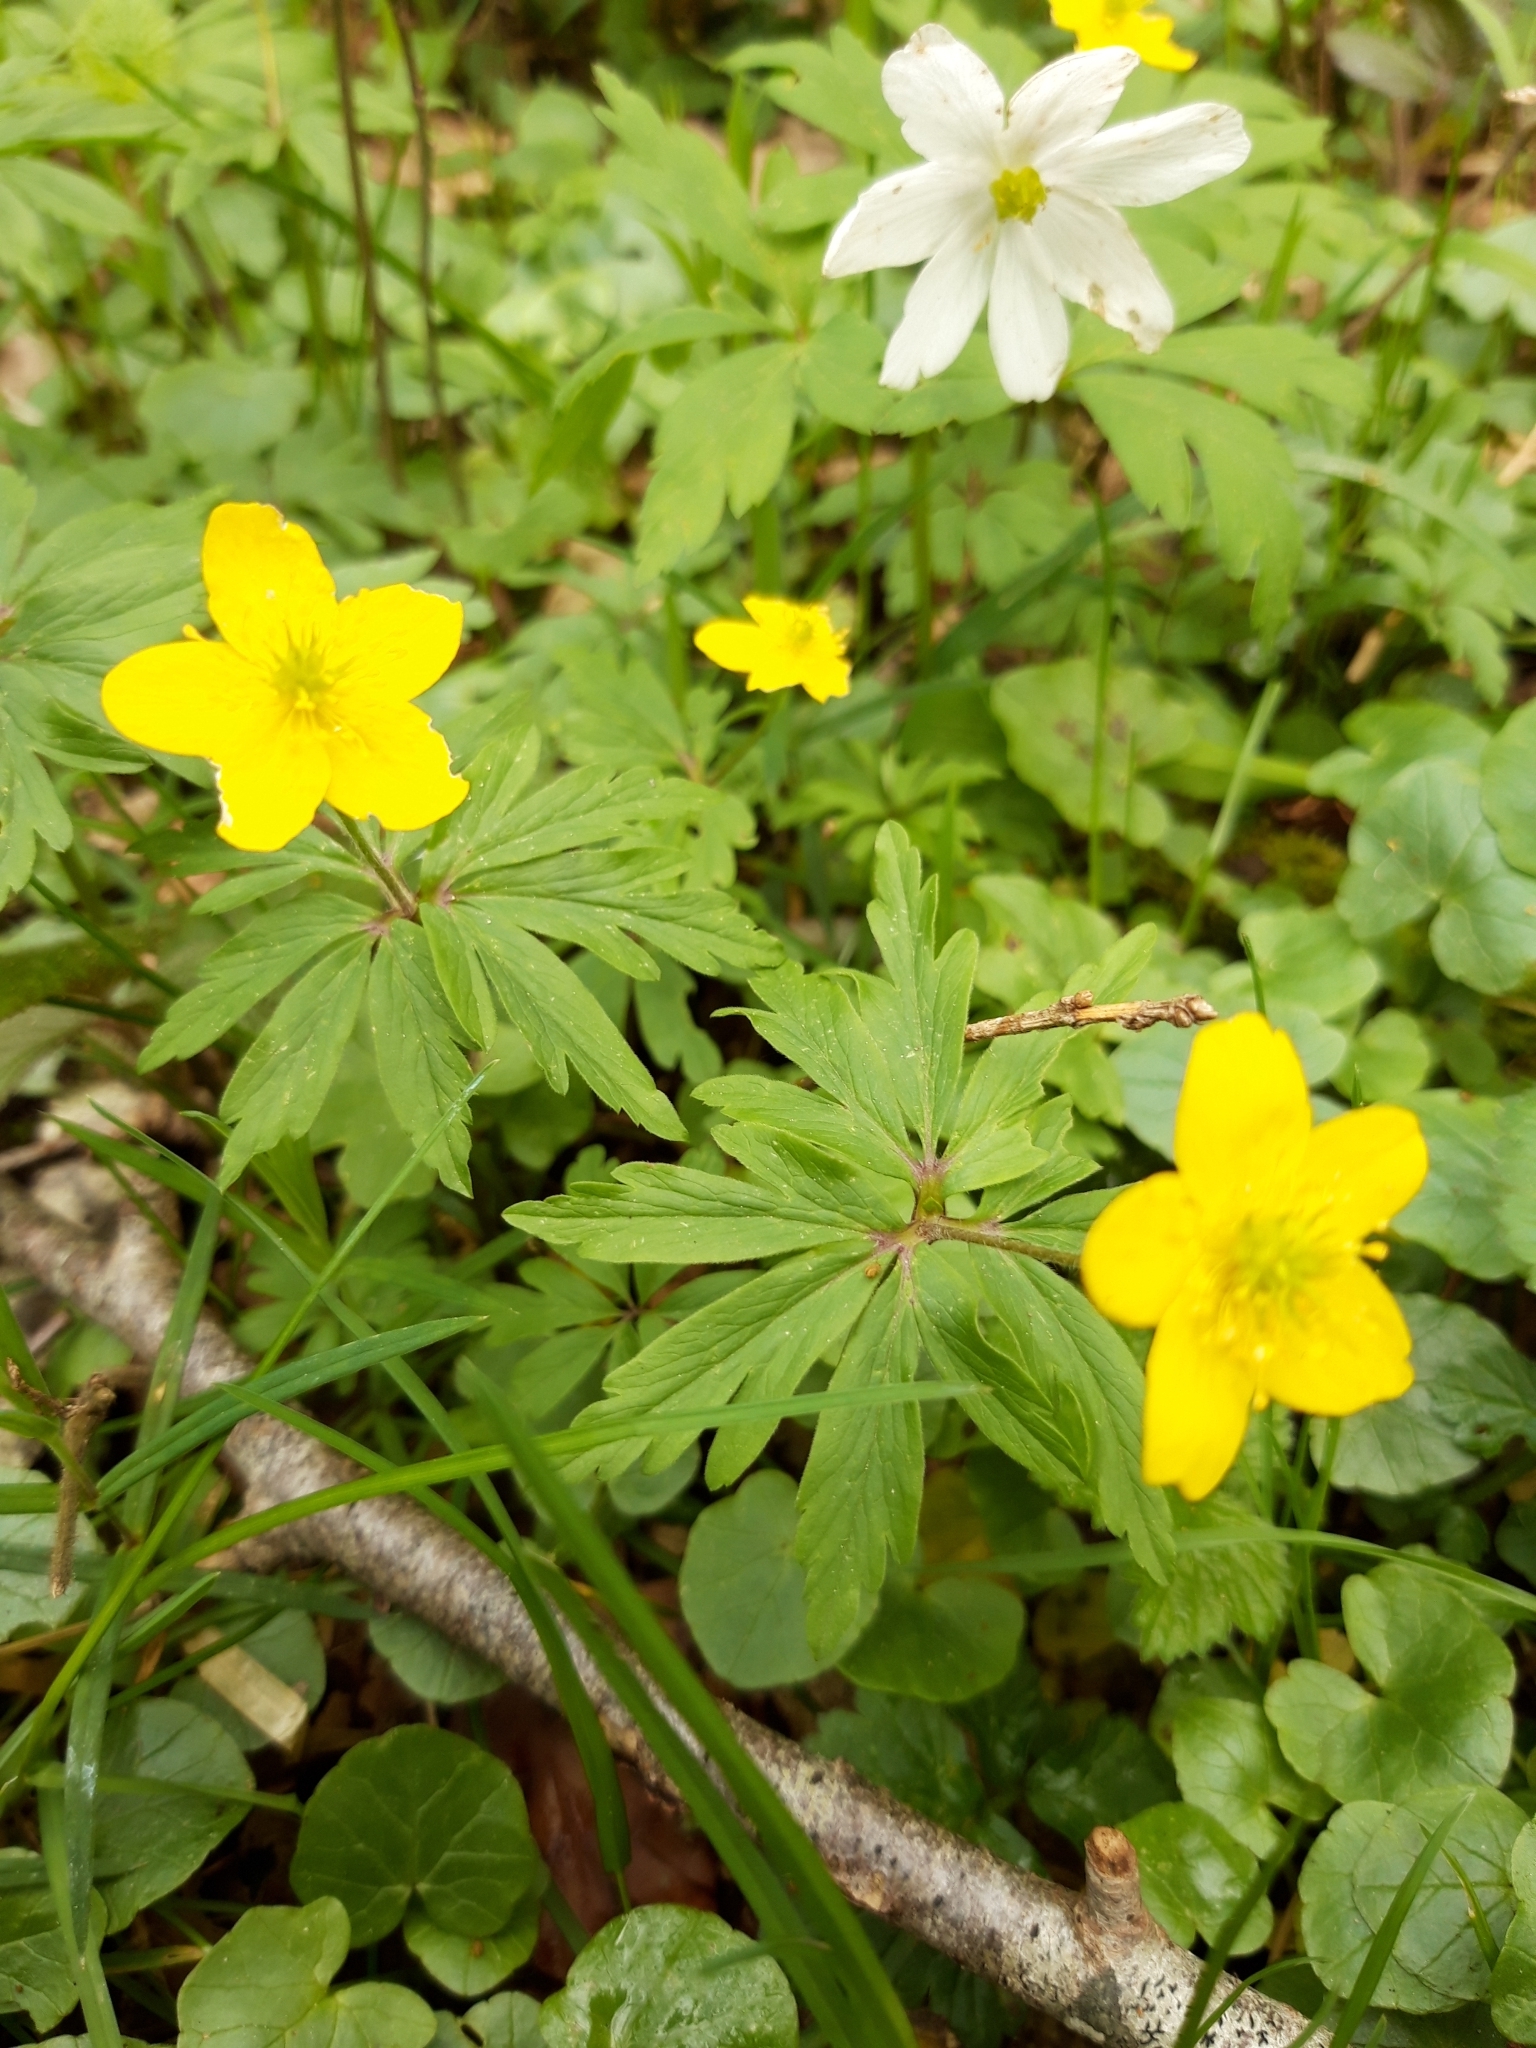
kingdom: Plantae
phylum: Tracheophyta
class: Magnoliopsida
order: Ranunculales
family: Ranunculaceae
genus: Anemone
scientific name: Anemone ranunculoides
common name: Yellow anemone
